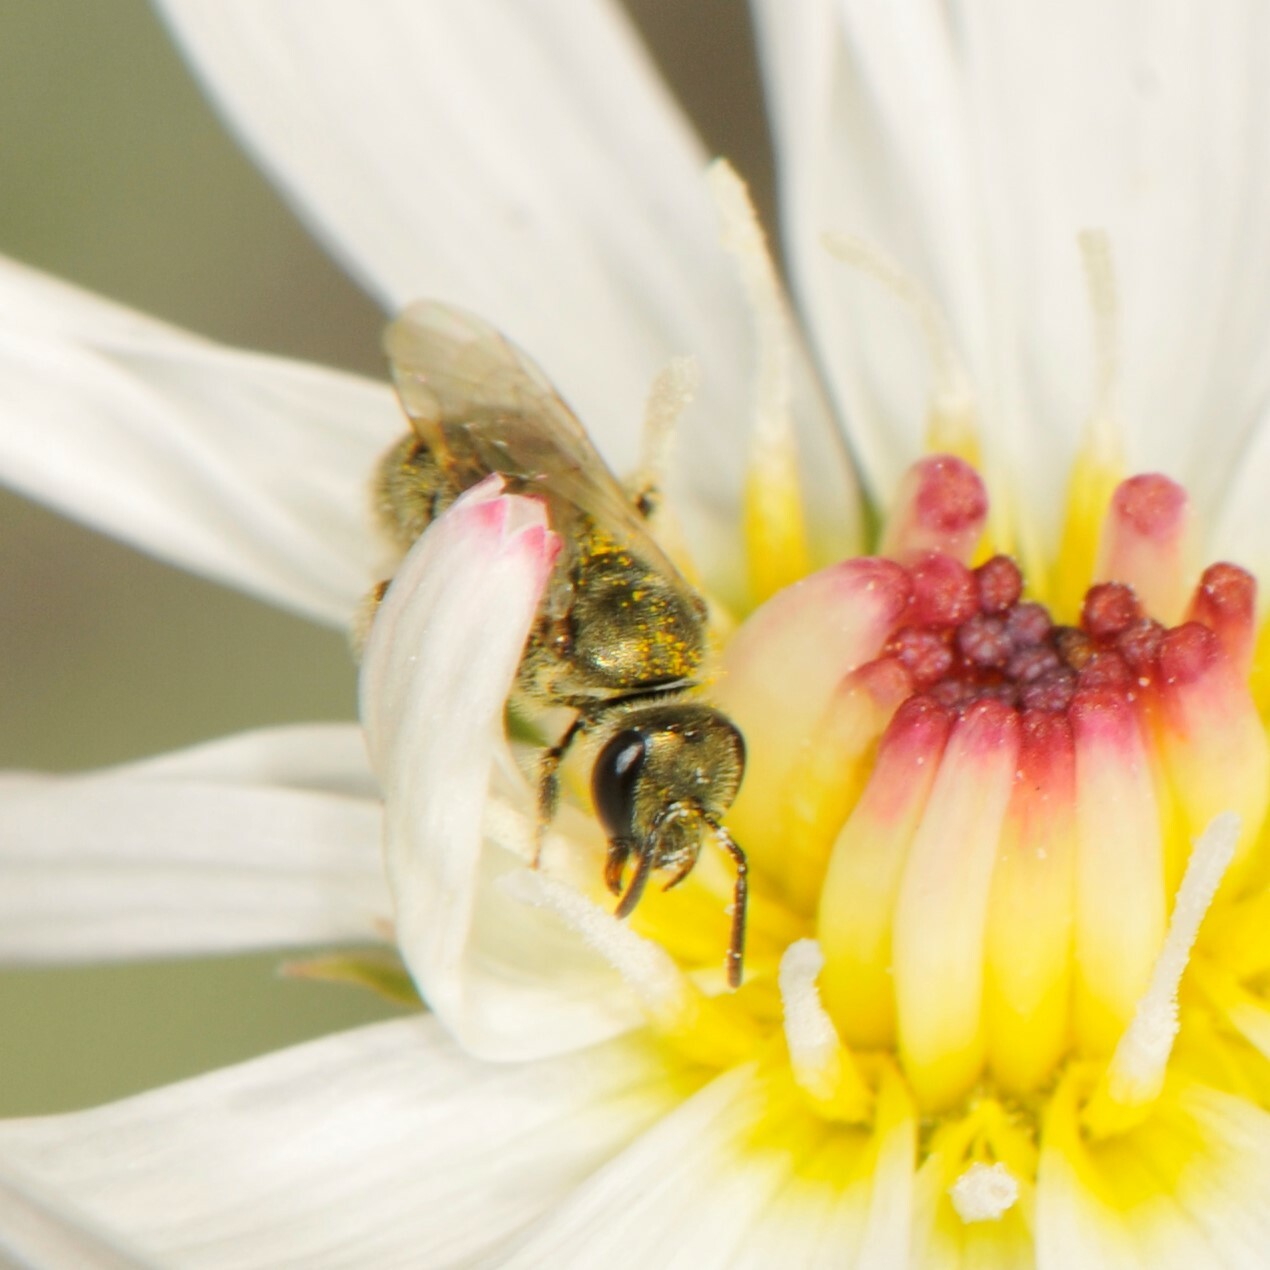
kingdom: Animalia
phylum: Arthropoda
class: Insecta
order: Hymenoptera
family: Halictidae
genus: Dialictus
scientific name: Dialictus
